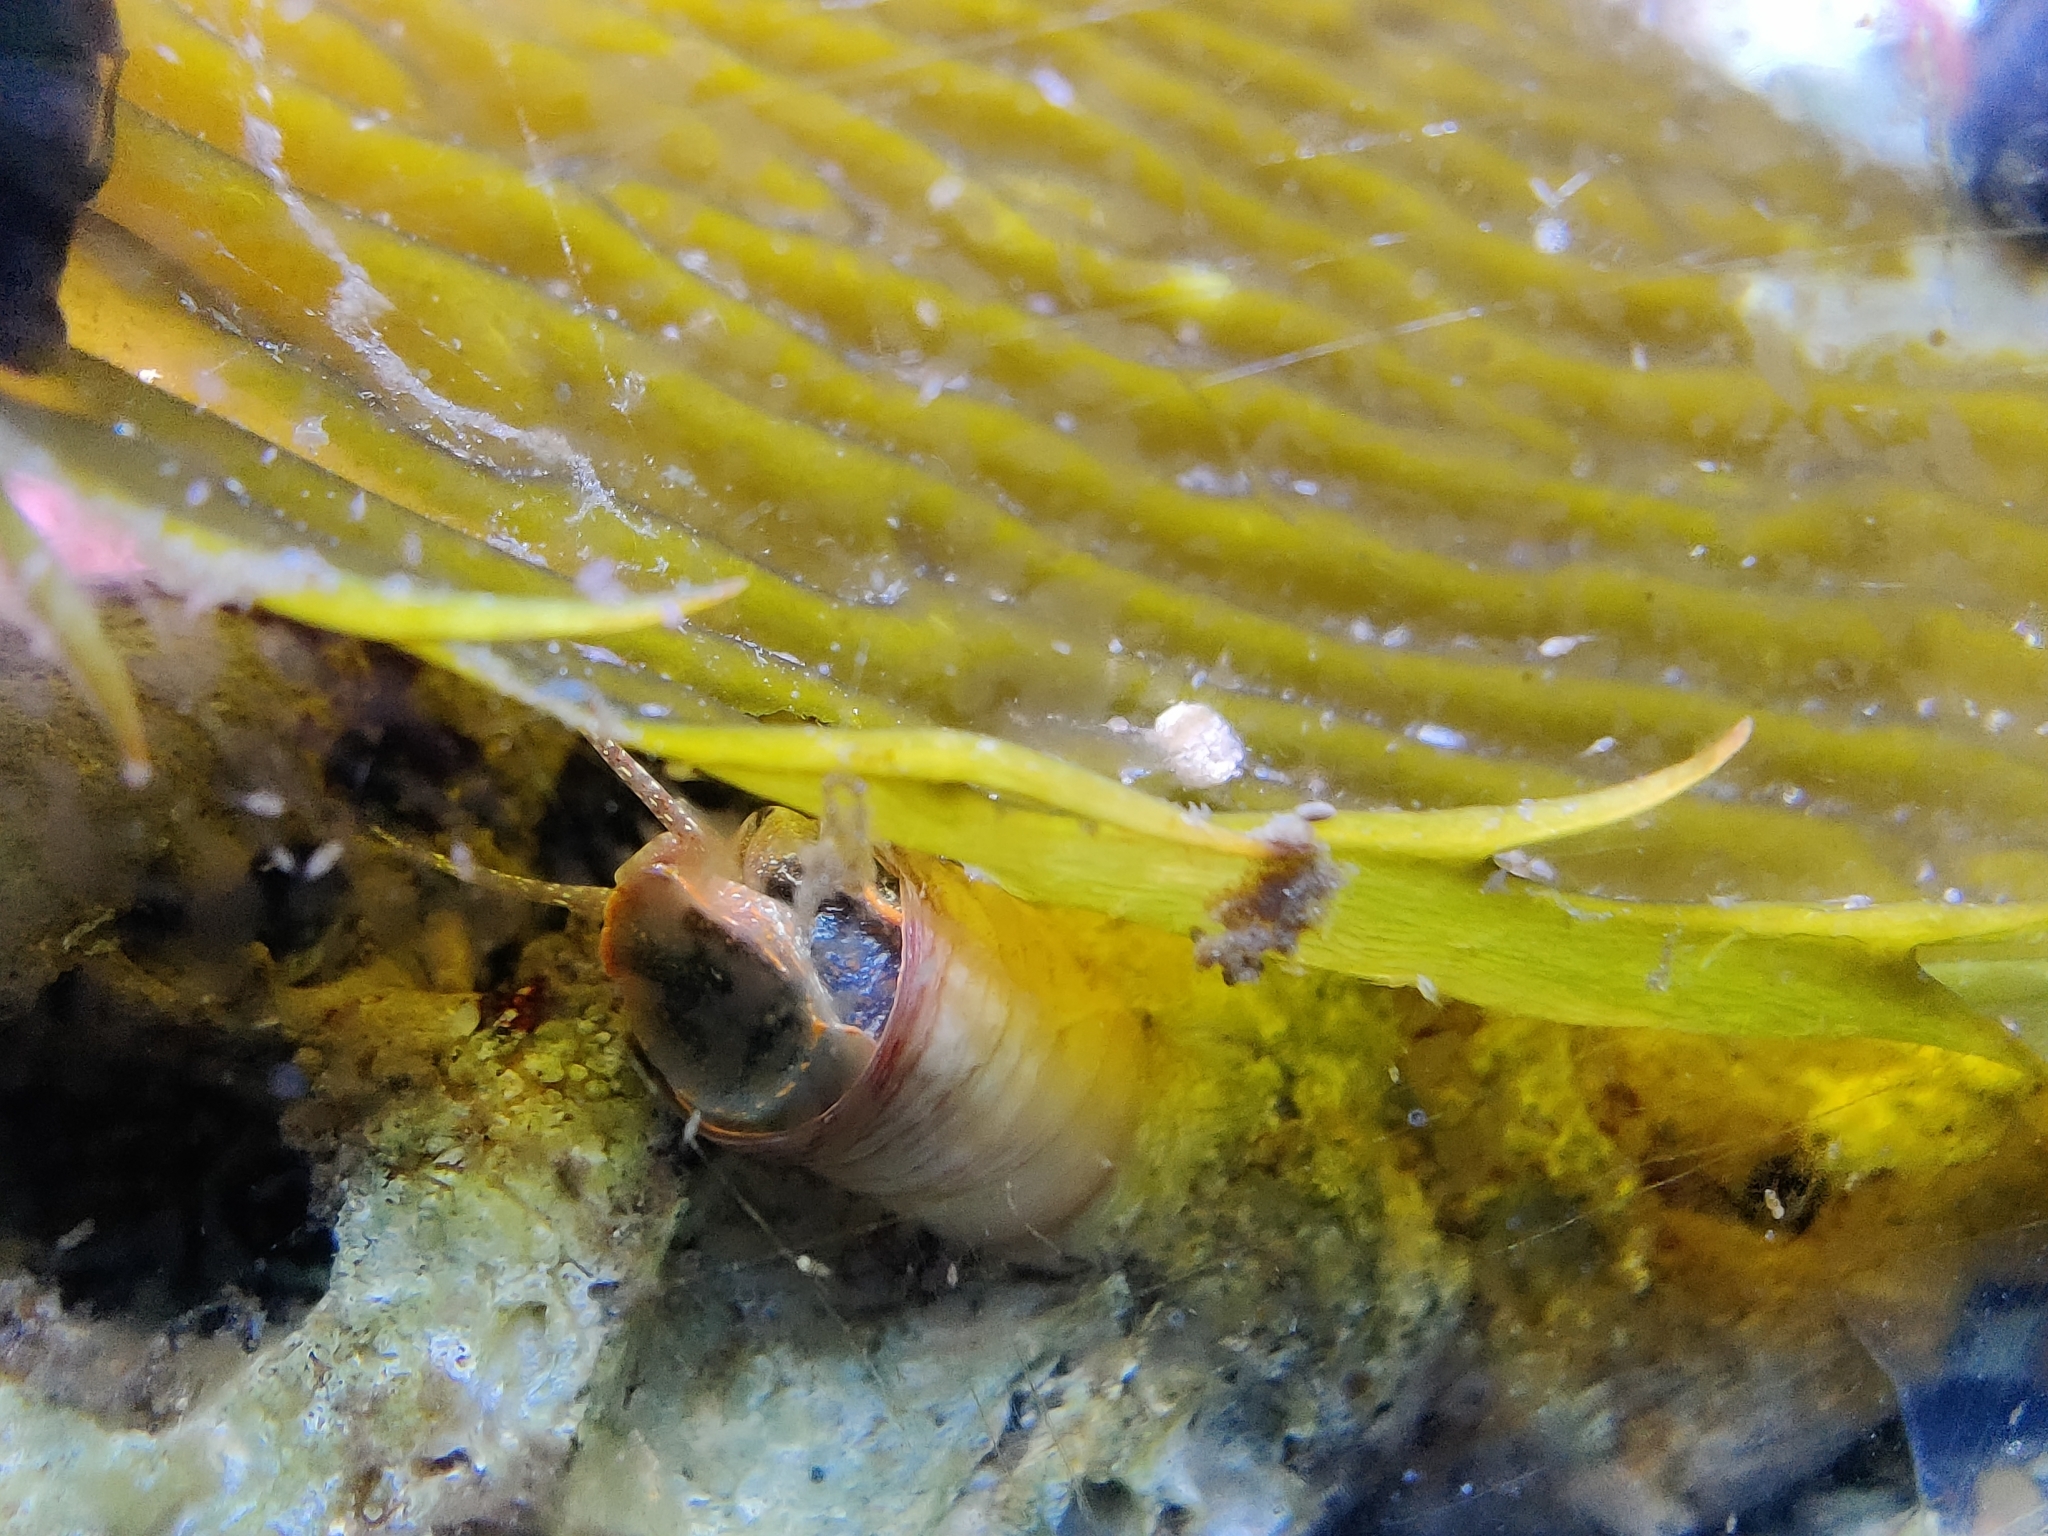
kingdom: Animalia
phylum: Mollusca
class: Gastropoda
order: Littorinimorpha
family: Vermetidae
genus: Thylacodes
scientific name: Thylacodes squamigerus
